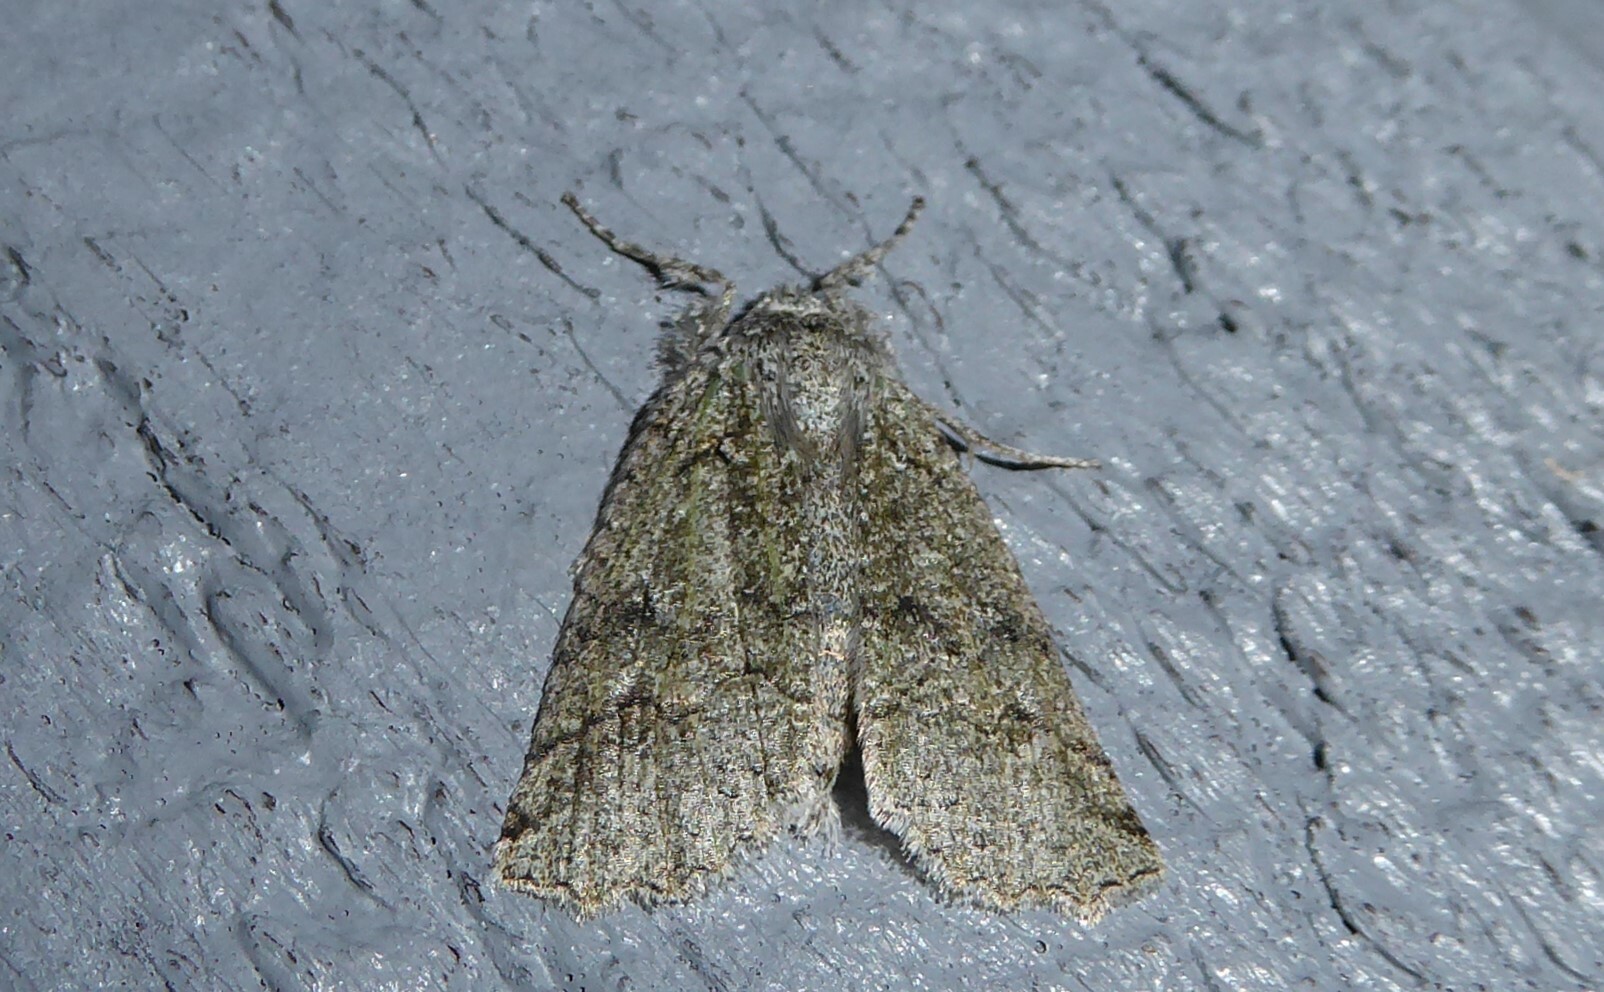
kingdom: Animalia
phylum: Arthropoda
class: Insecta
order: Lepidoptera
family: Geometridae
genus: Declana
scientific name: Declana floccosa
